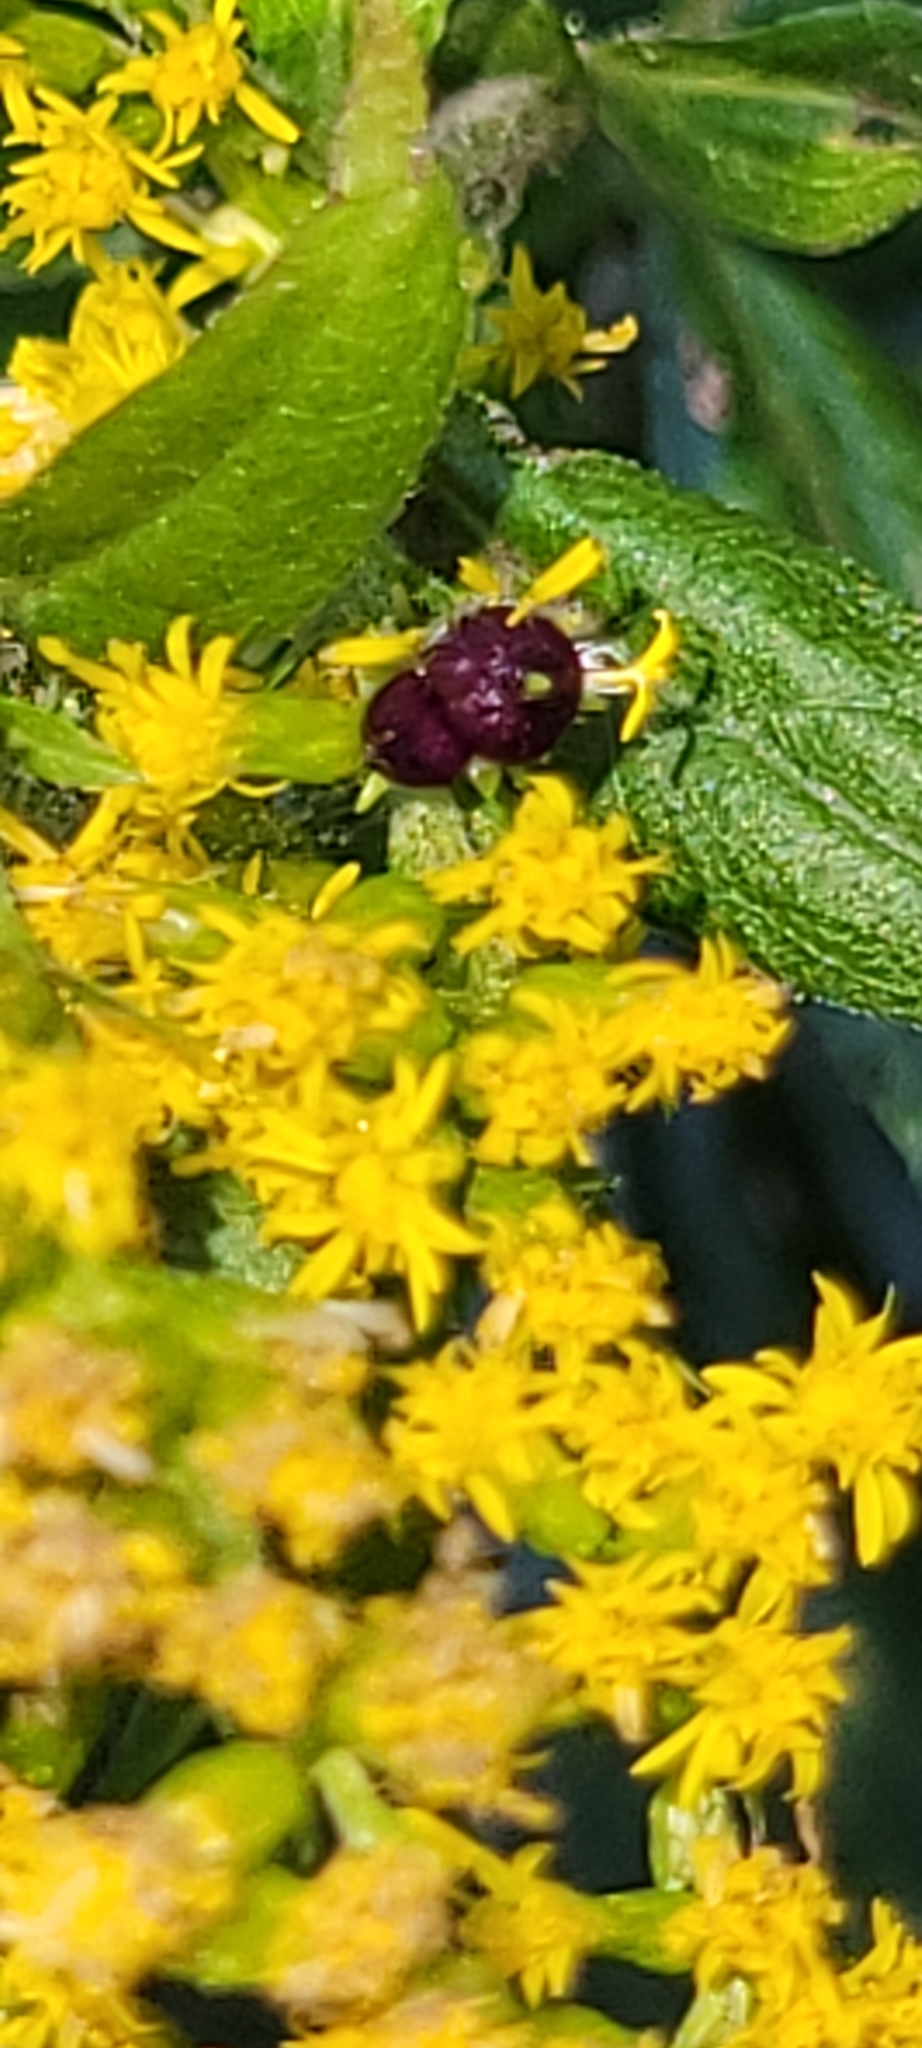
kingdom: Animalia
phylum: Arthropoda
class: Insecta
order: Diptera
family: Cecidomyiidae
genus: Schizomyia
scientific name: Schizomyia racemicola
